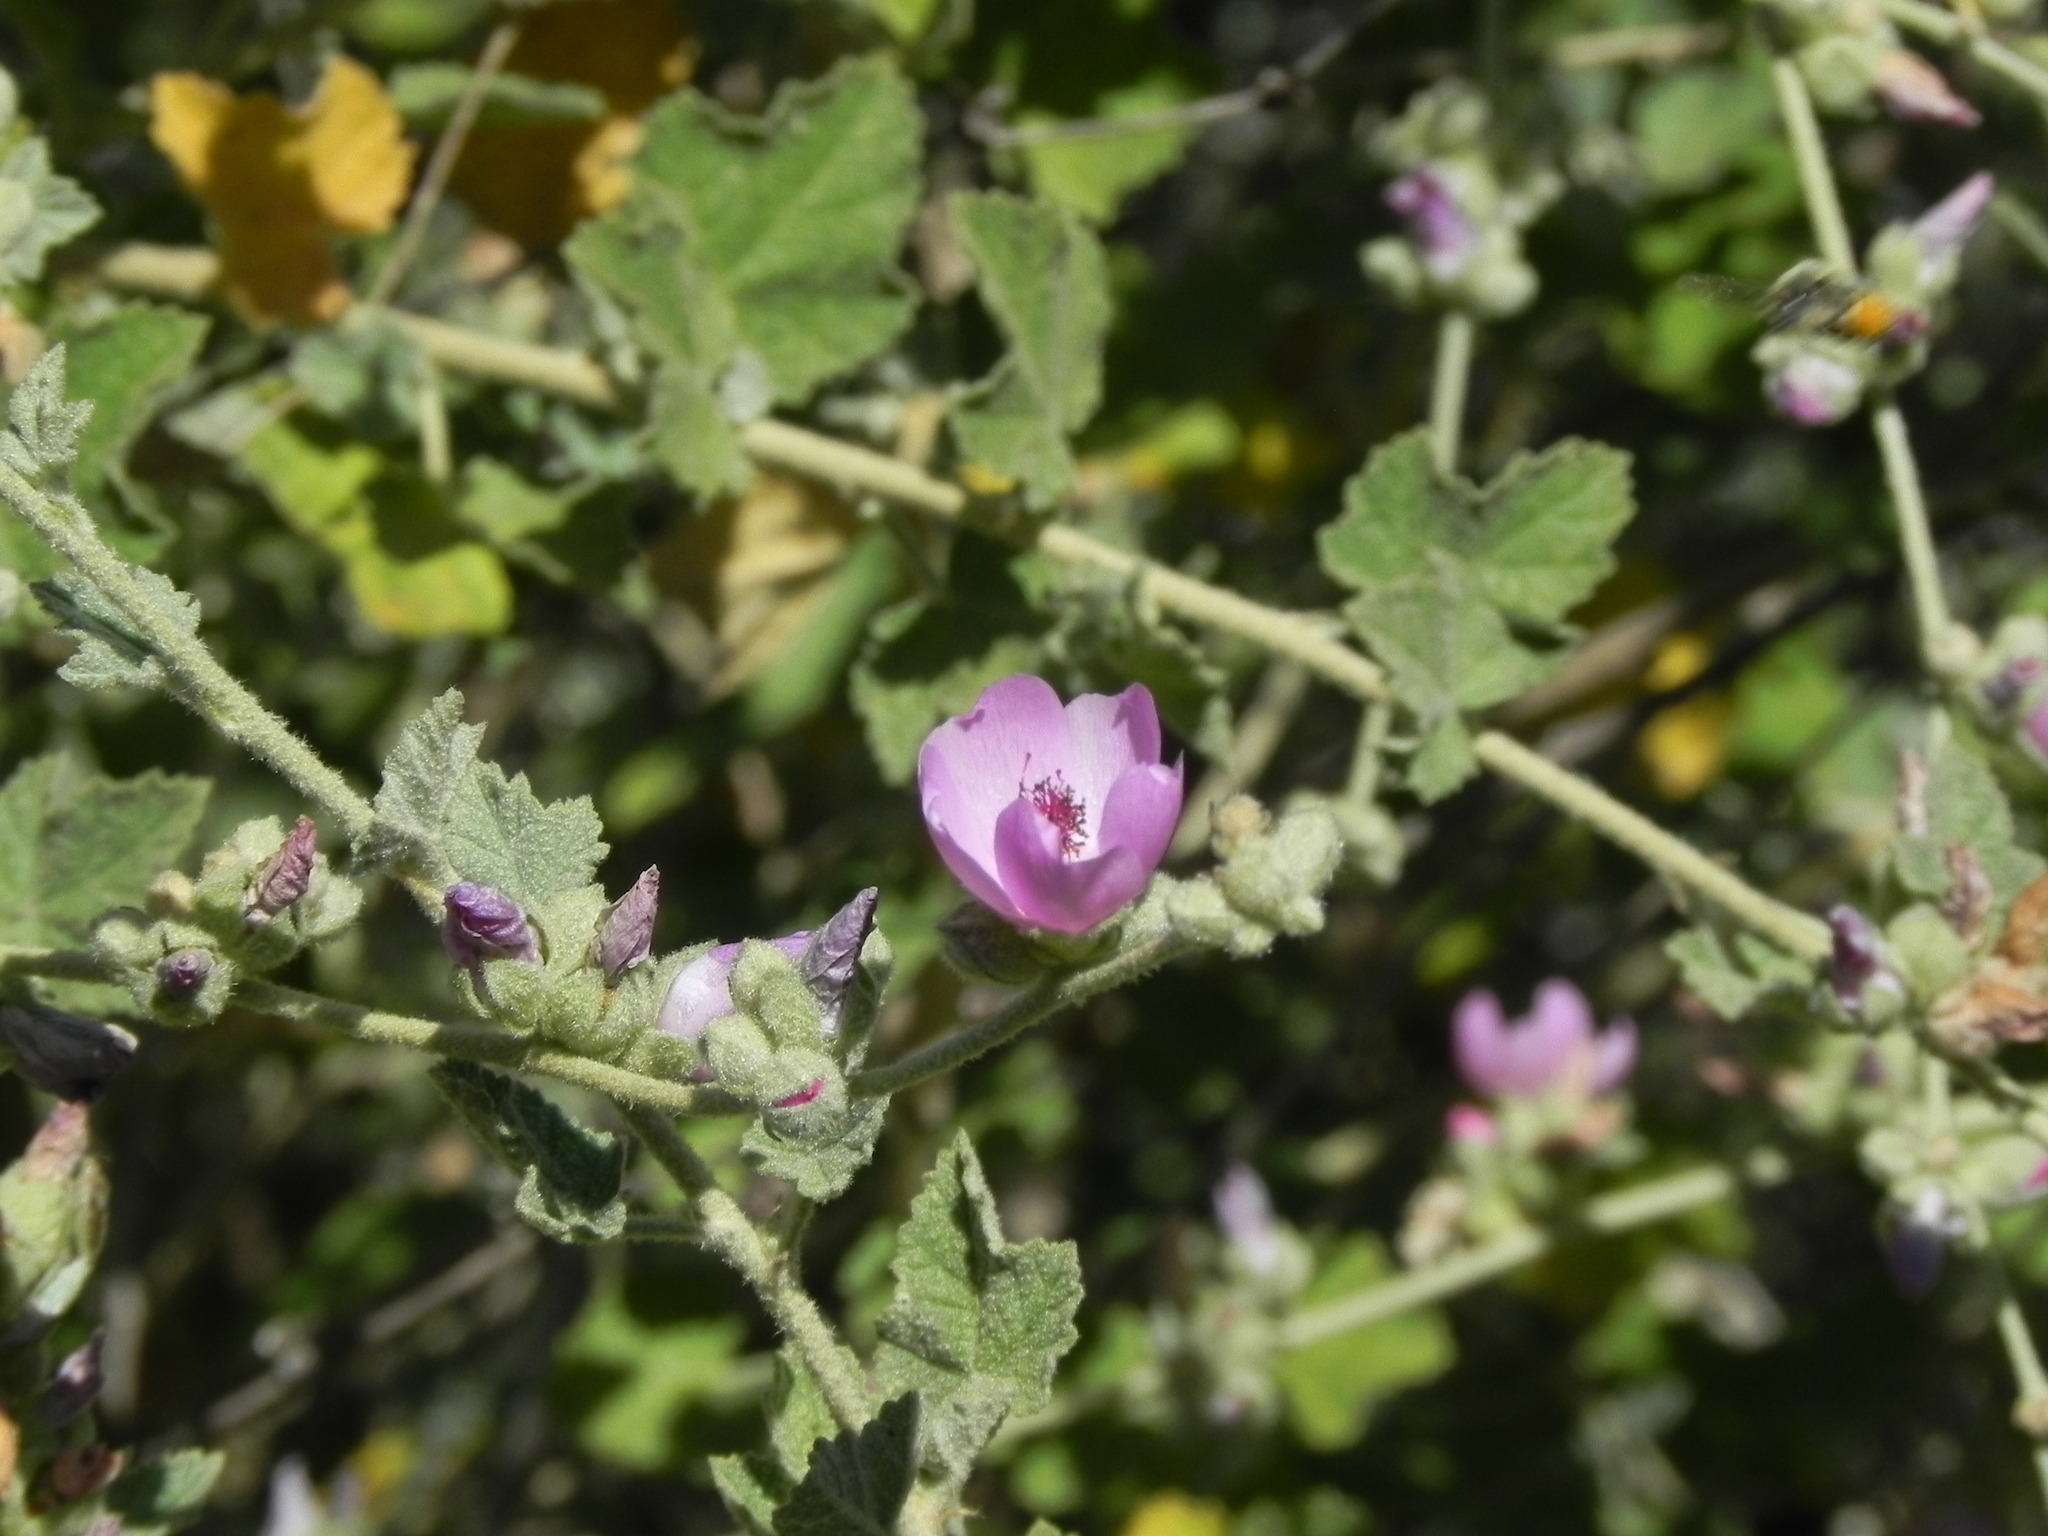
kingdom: Plantae
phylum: Tracheophyta
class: Magnoliopsida
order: Malvales
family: Malvaceae
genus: Malacothamnus
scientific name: Malacothamnus fasciculatus
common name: Sant cruz island bush-mallow
